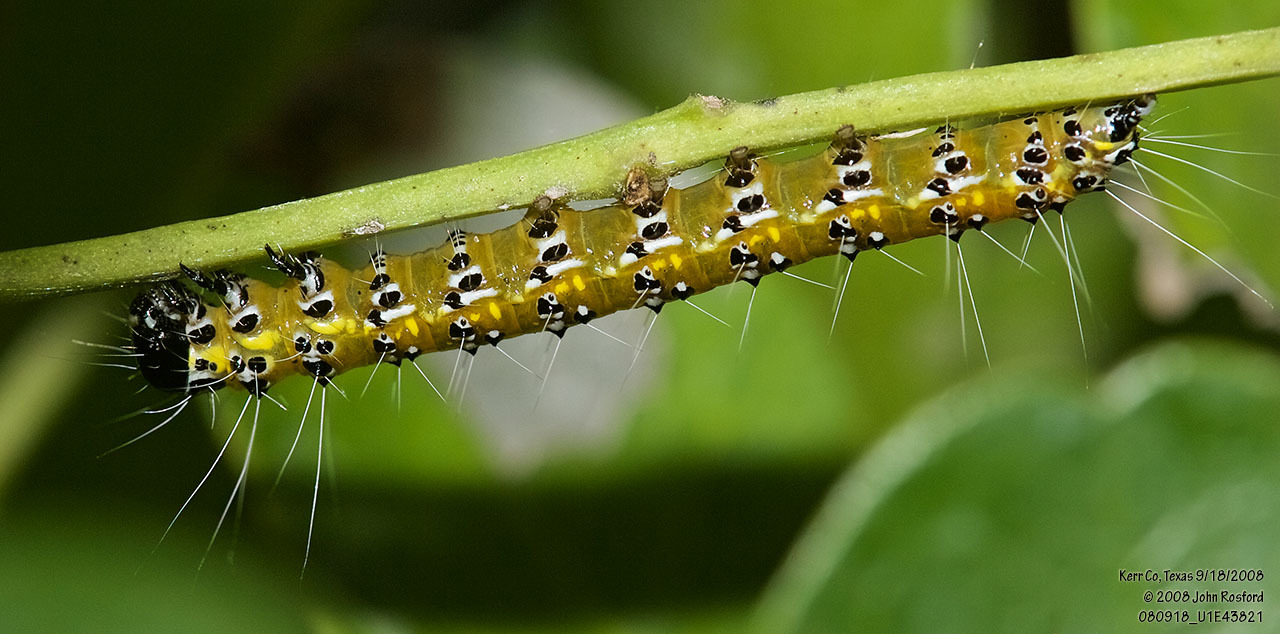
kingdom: Animalia
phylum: Arthropoda
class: Insecta
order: Lepidoptera
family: Crambidae
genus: Uresiphita
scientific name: Uresiphita reversalis
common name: Genista broom moth
